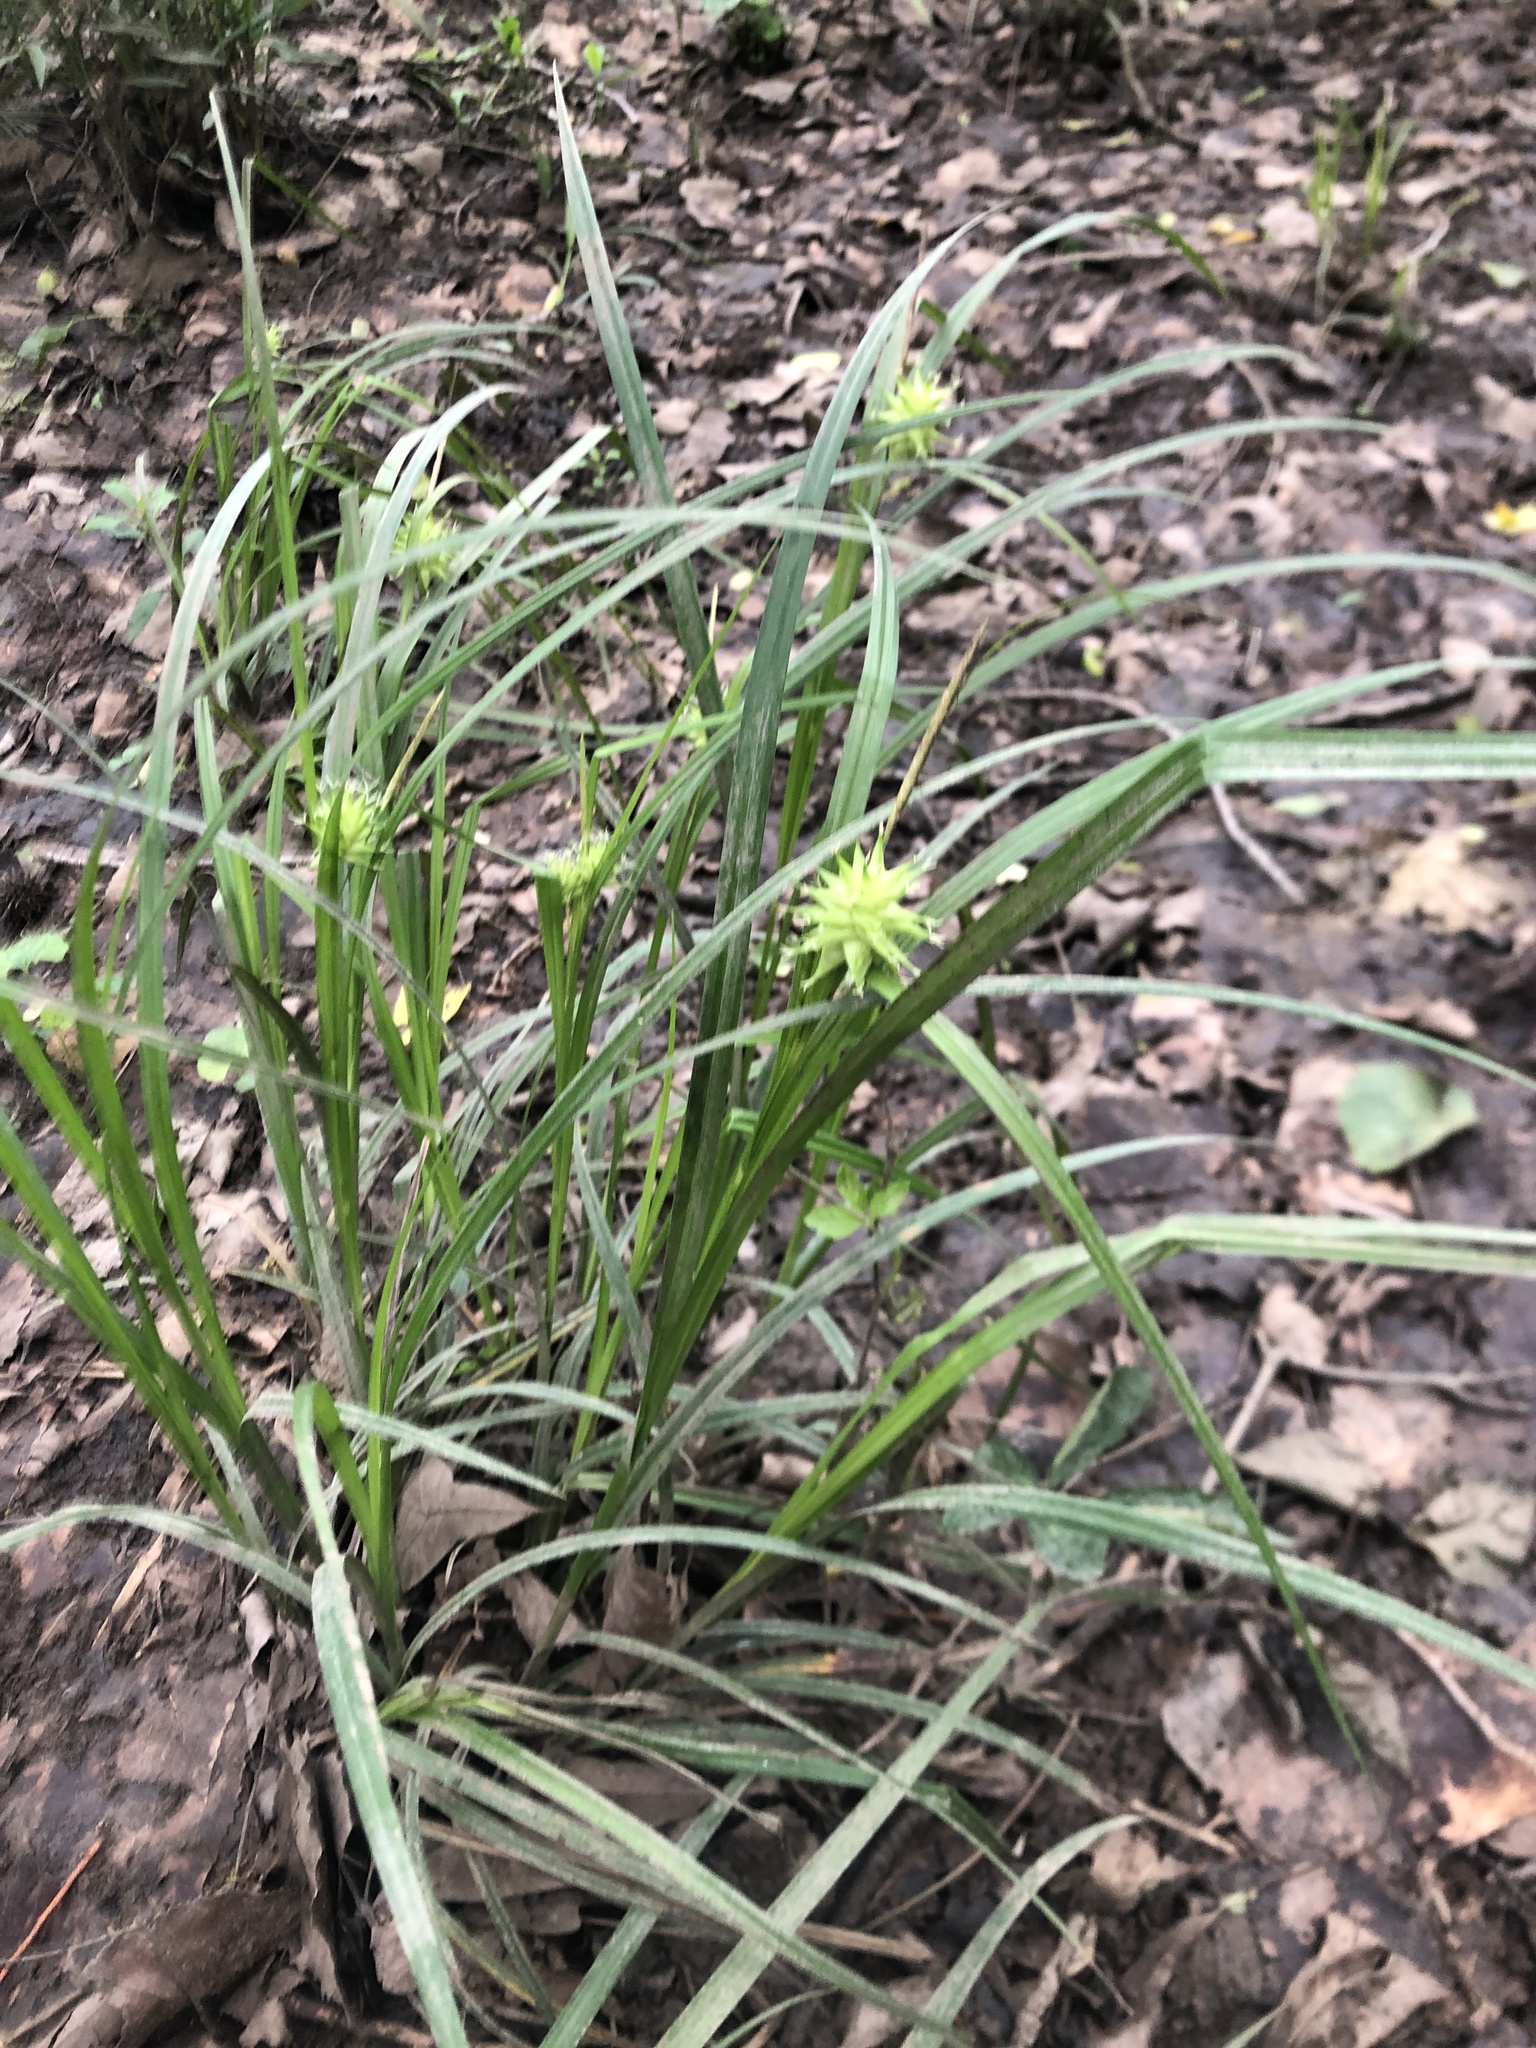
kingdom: Plantae
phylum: Tracheophyta
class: Liliopsida
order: Poales
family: Cyperaceae
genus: Carex
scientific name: Carex grayi
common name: Asa gray's sedge
